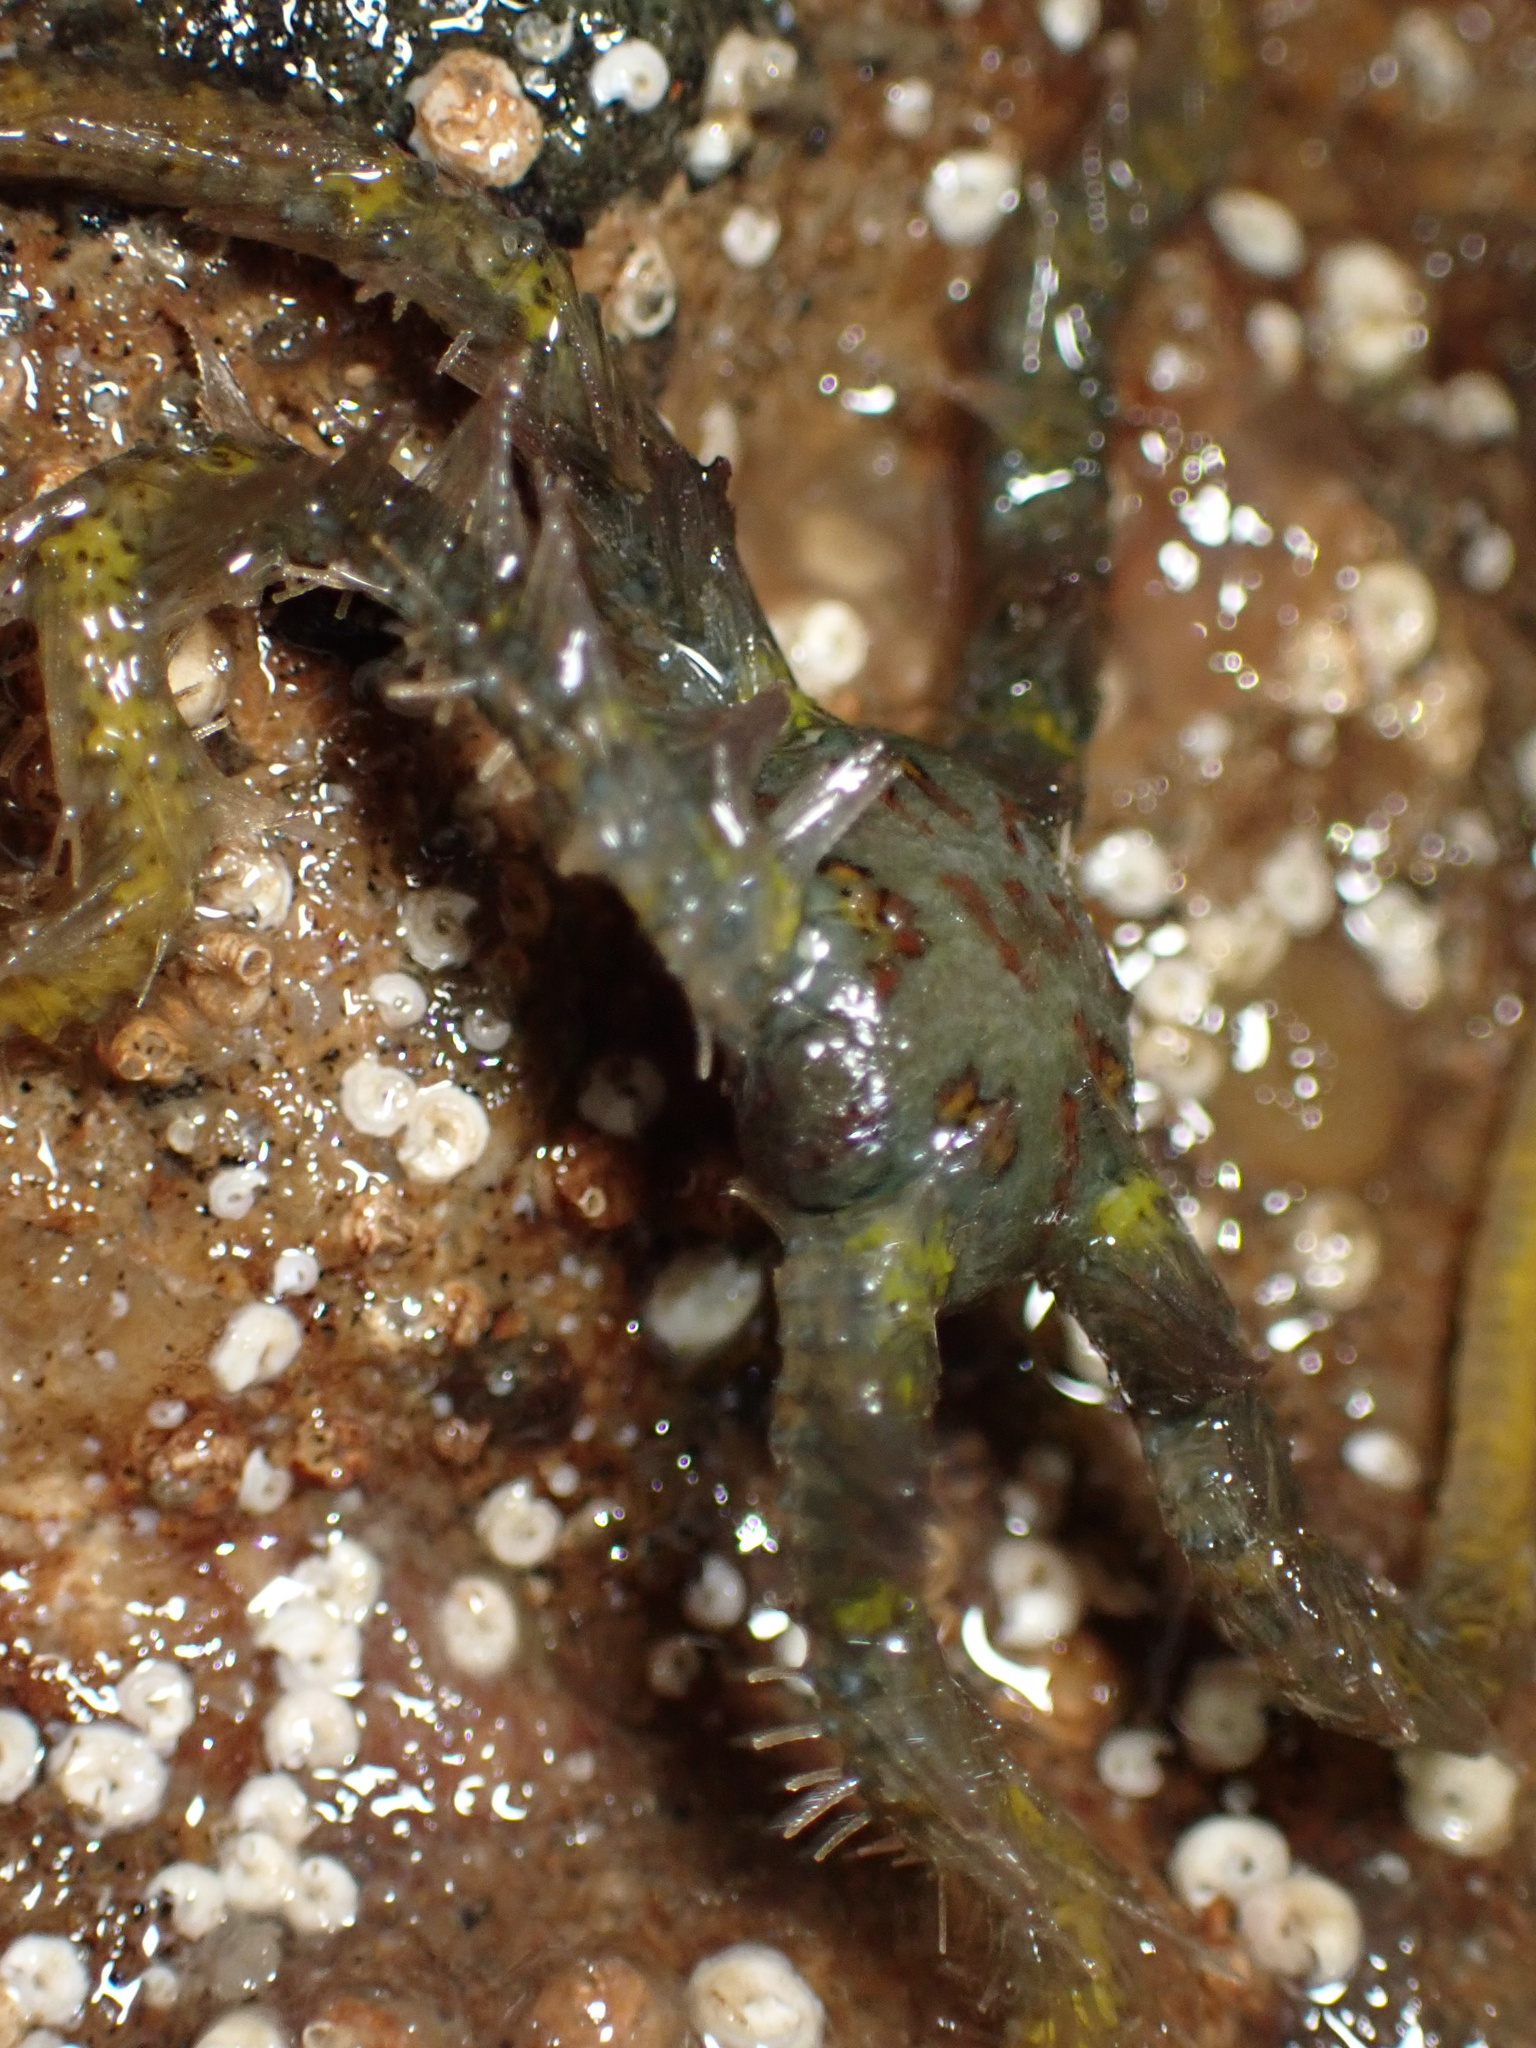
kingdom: Animalia
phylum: Echinodermata
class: Ophiuroidea
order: Amphilepidida
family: Ophiotrichidae
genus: Ophiothrix
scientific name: Ophiothrix spiculata
